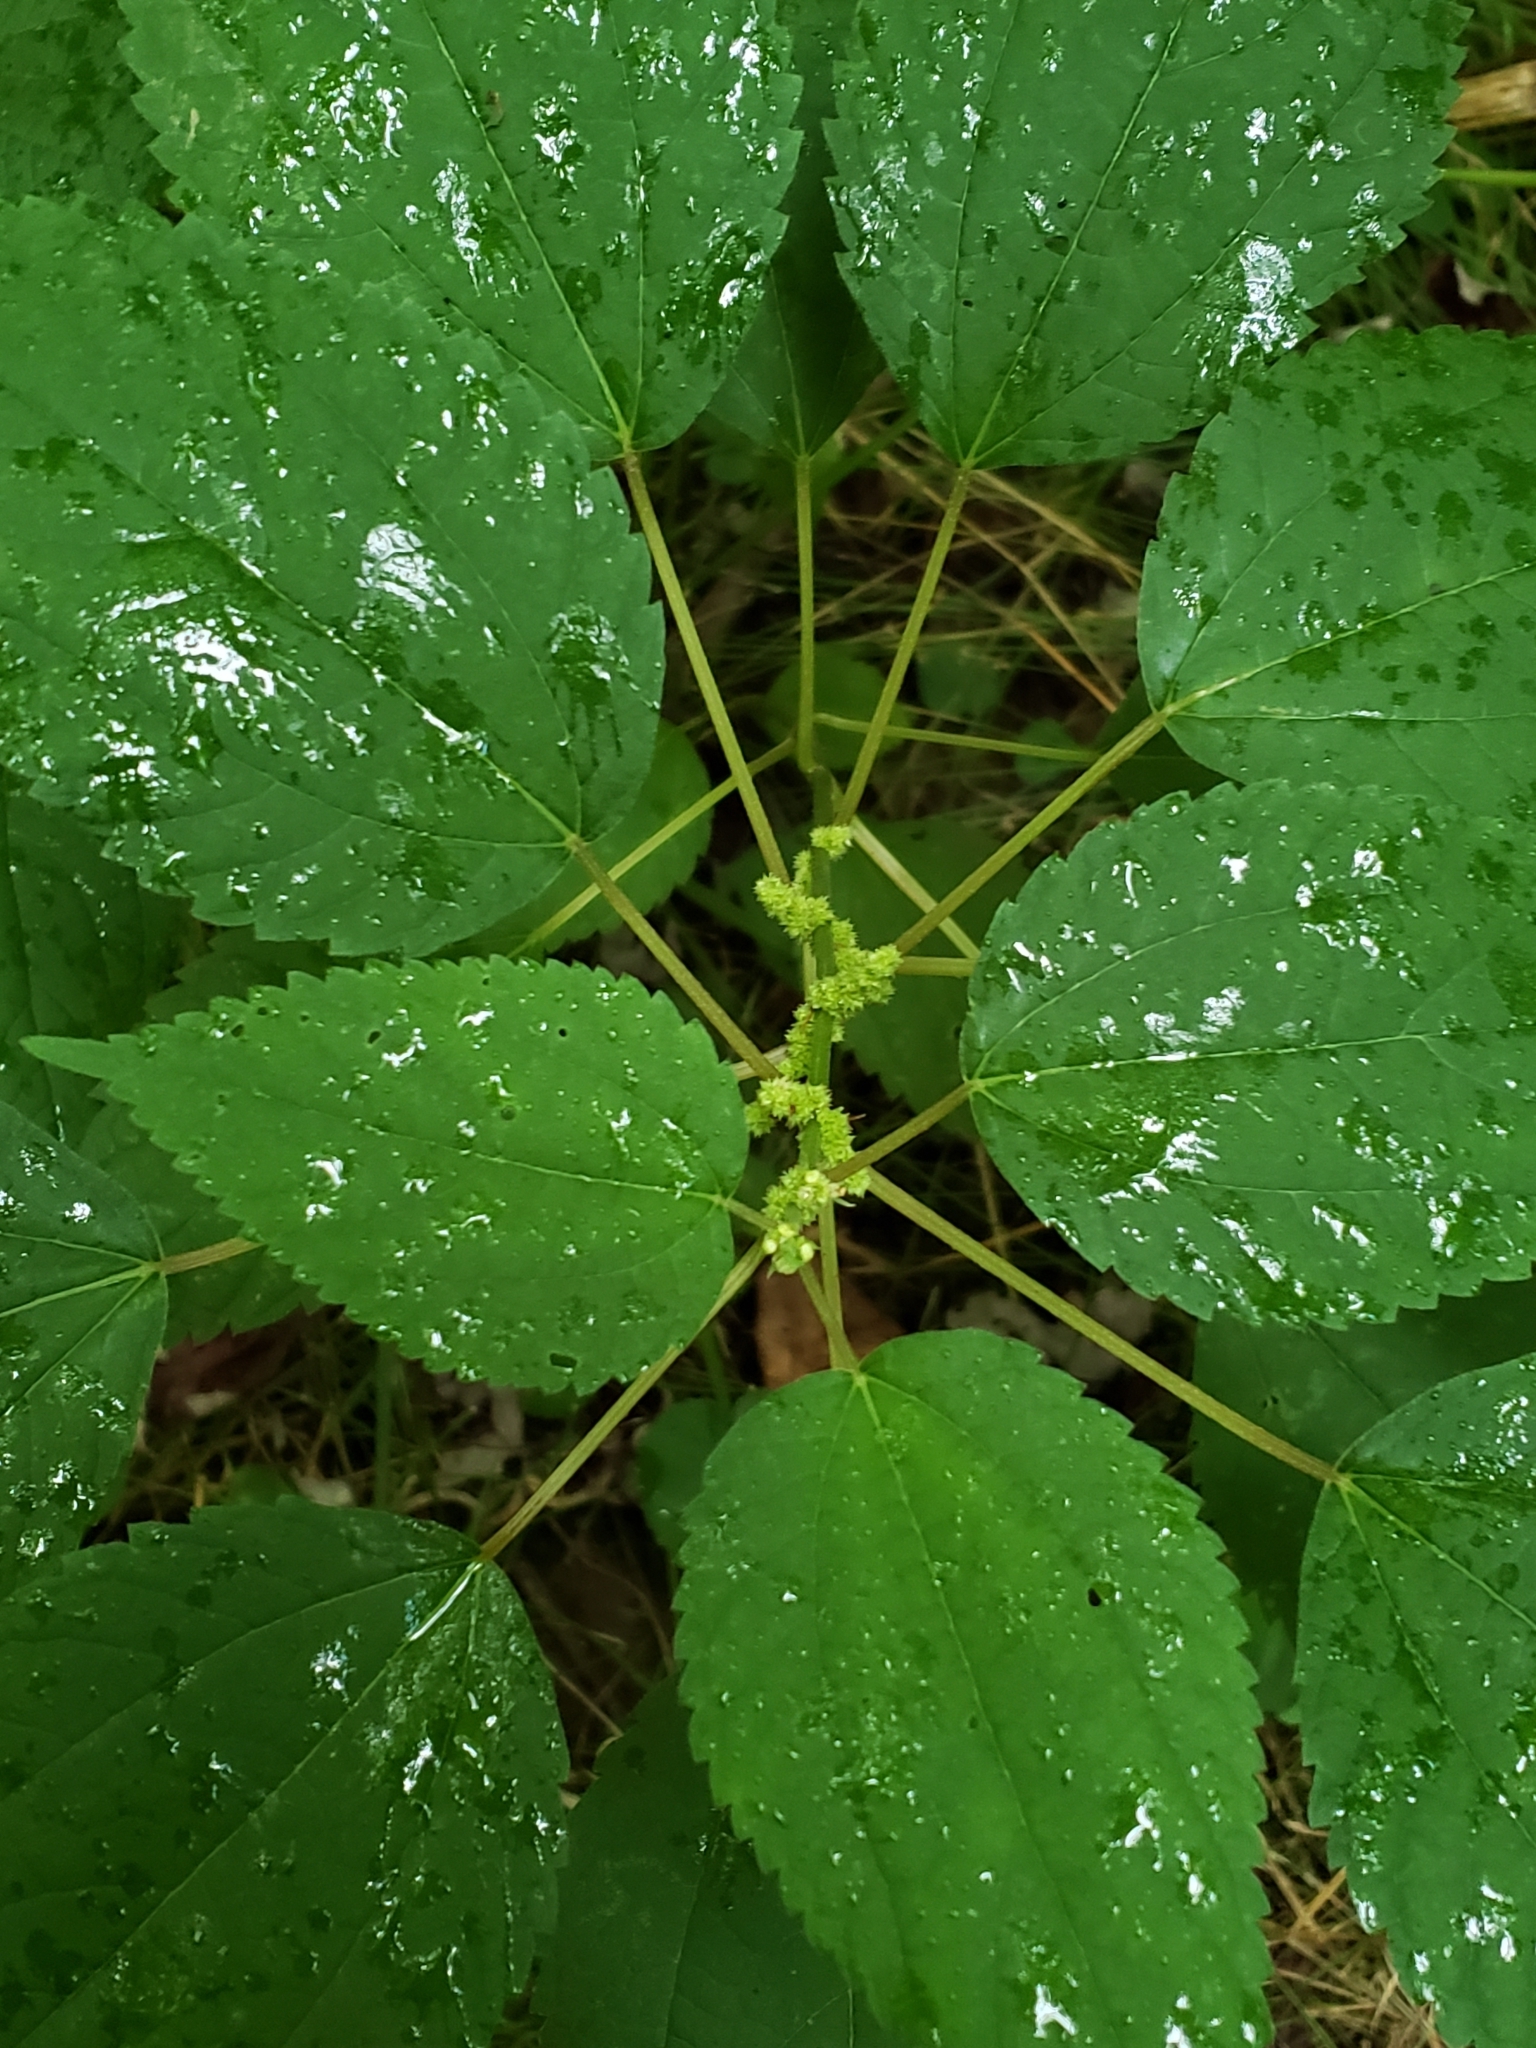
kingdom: Plantae
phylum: Tracheophyta
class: Magnoliopsida
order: Rosales
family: Urticaceae
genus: Boehmeria
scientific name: Boehmeria cylindrica
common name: Bog-hemp
